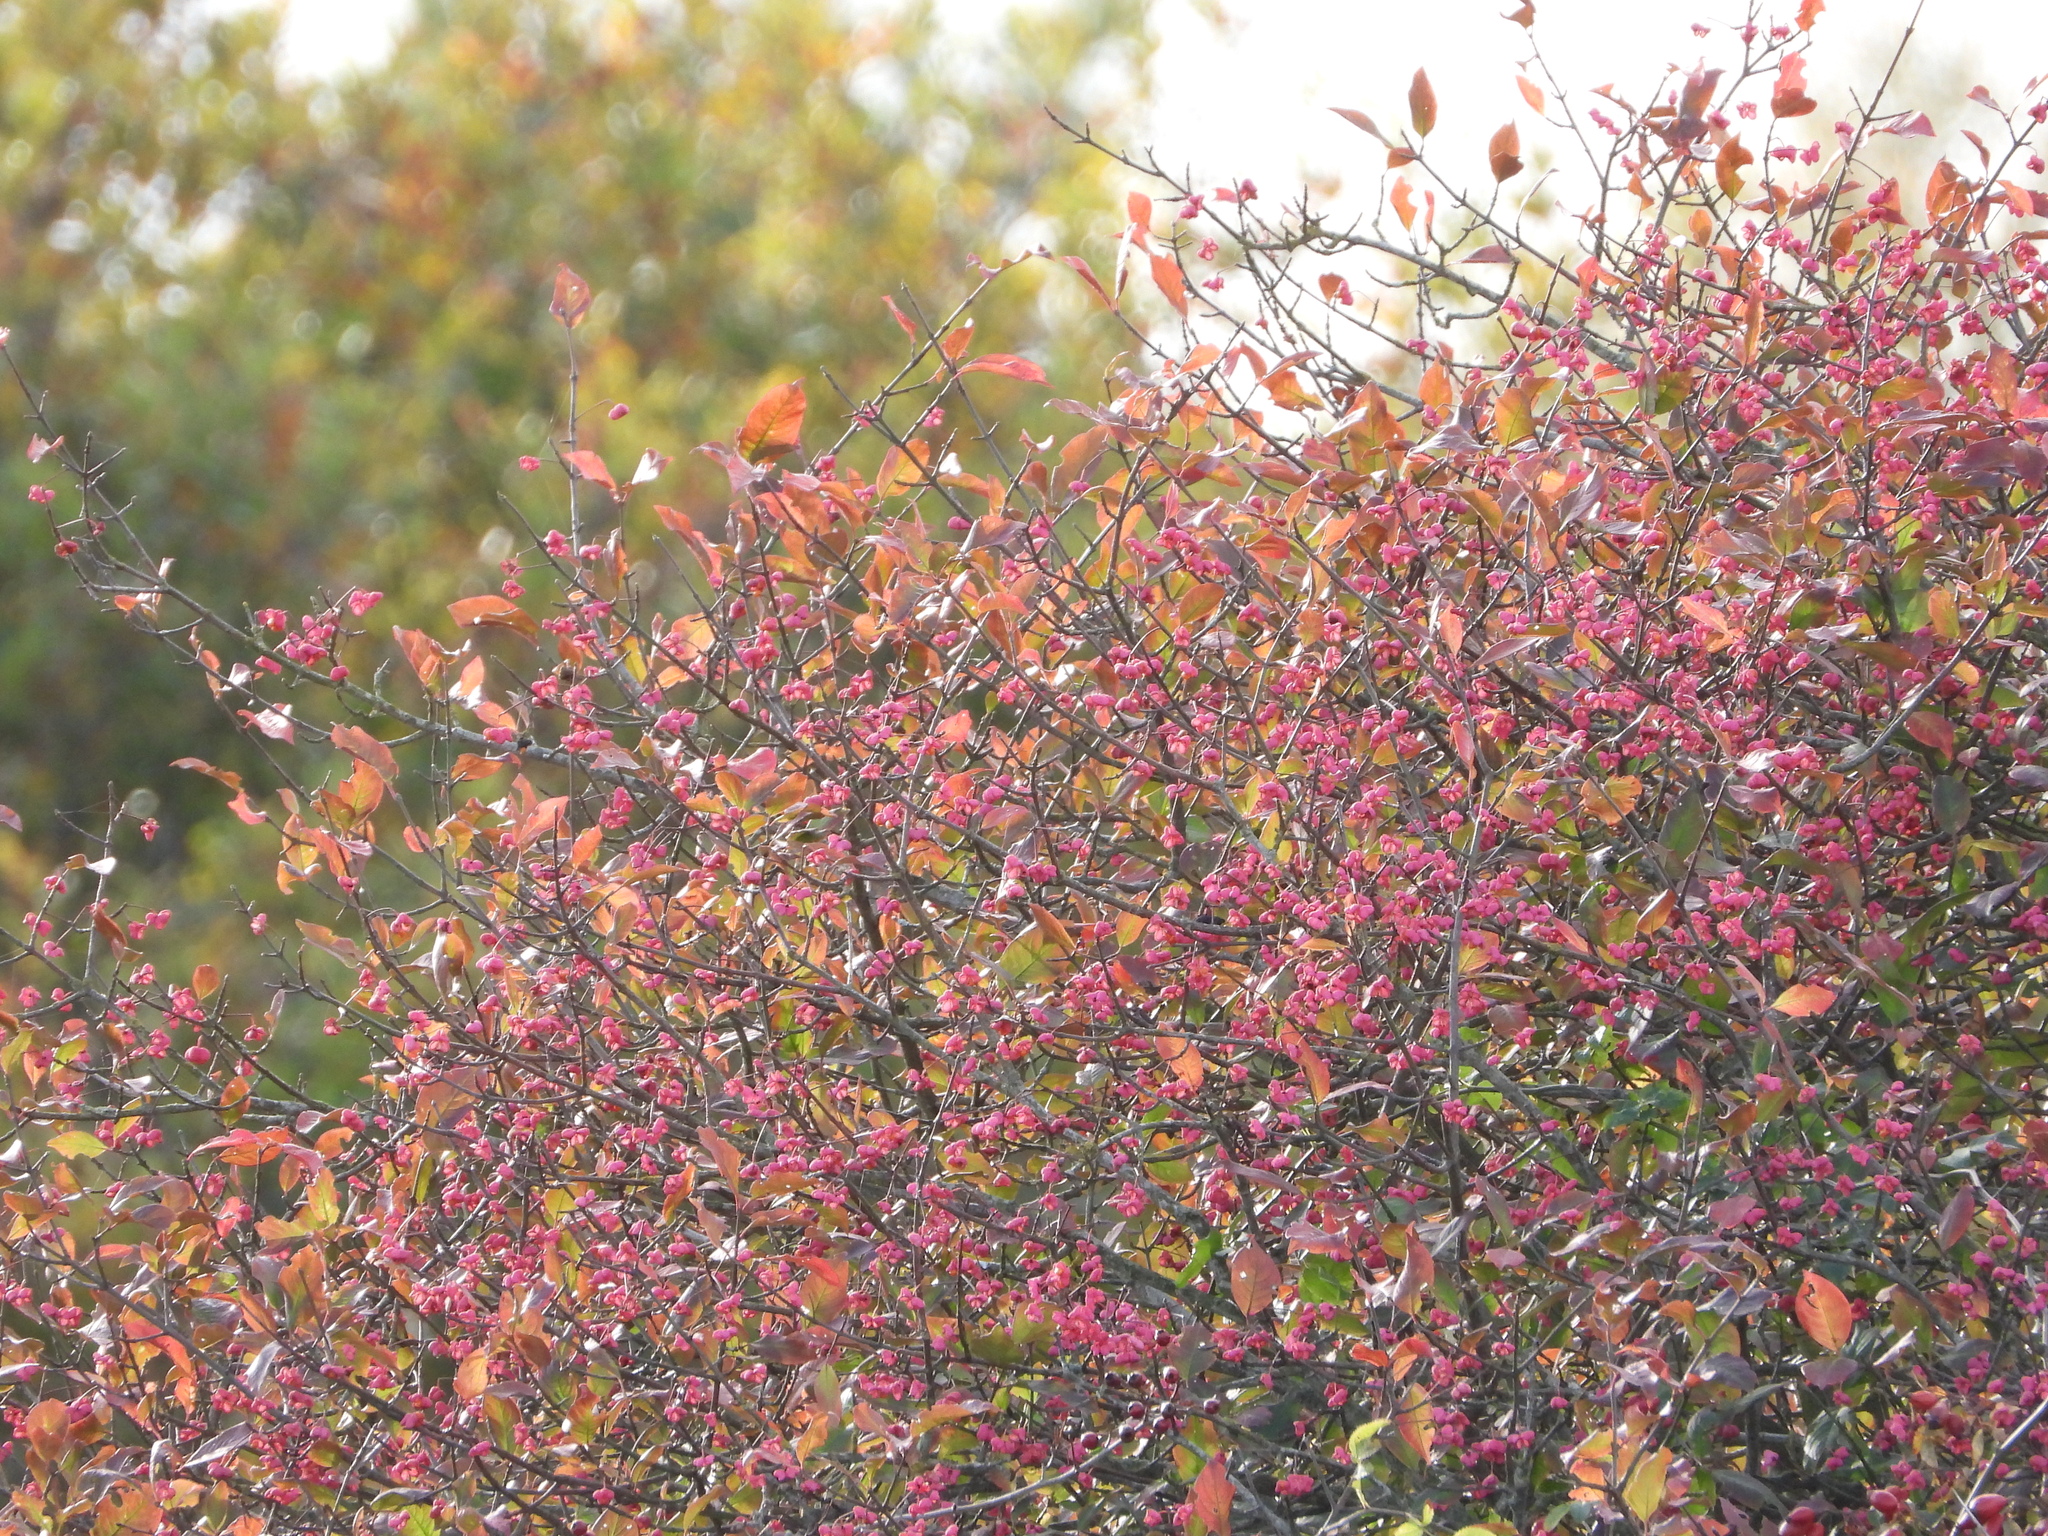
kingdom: Plantae
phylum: Tracheophyta
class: Magnoliopsida
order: Celastrales
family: Celastraceae
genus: Euonymus
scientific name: Euonymus europaeus
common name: Spindle
